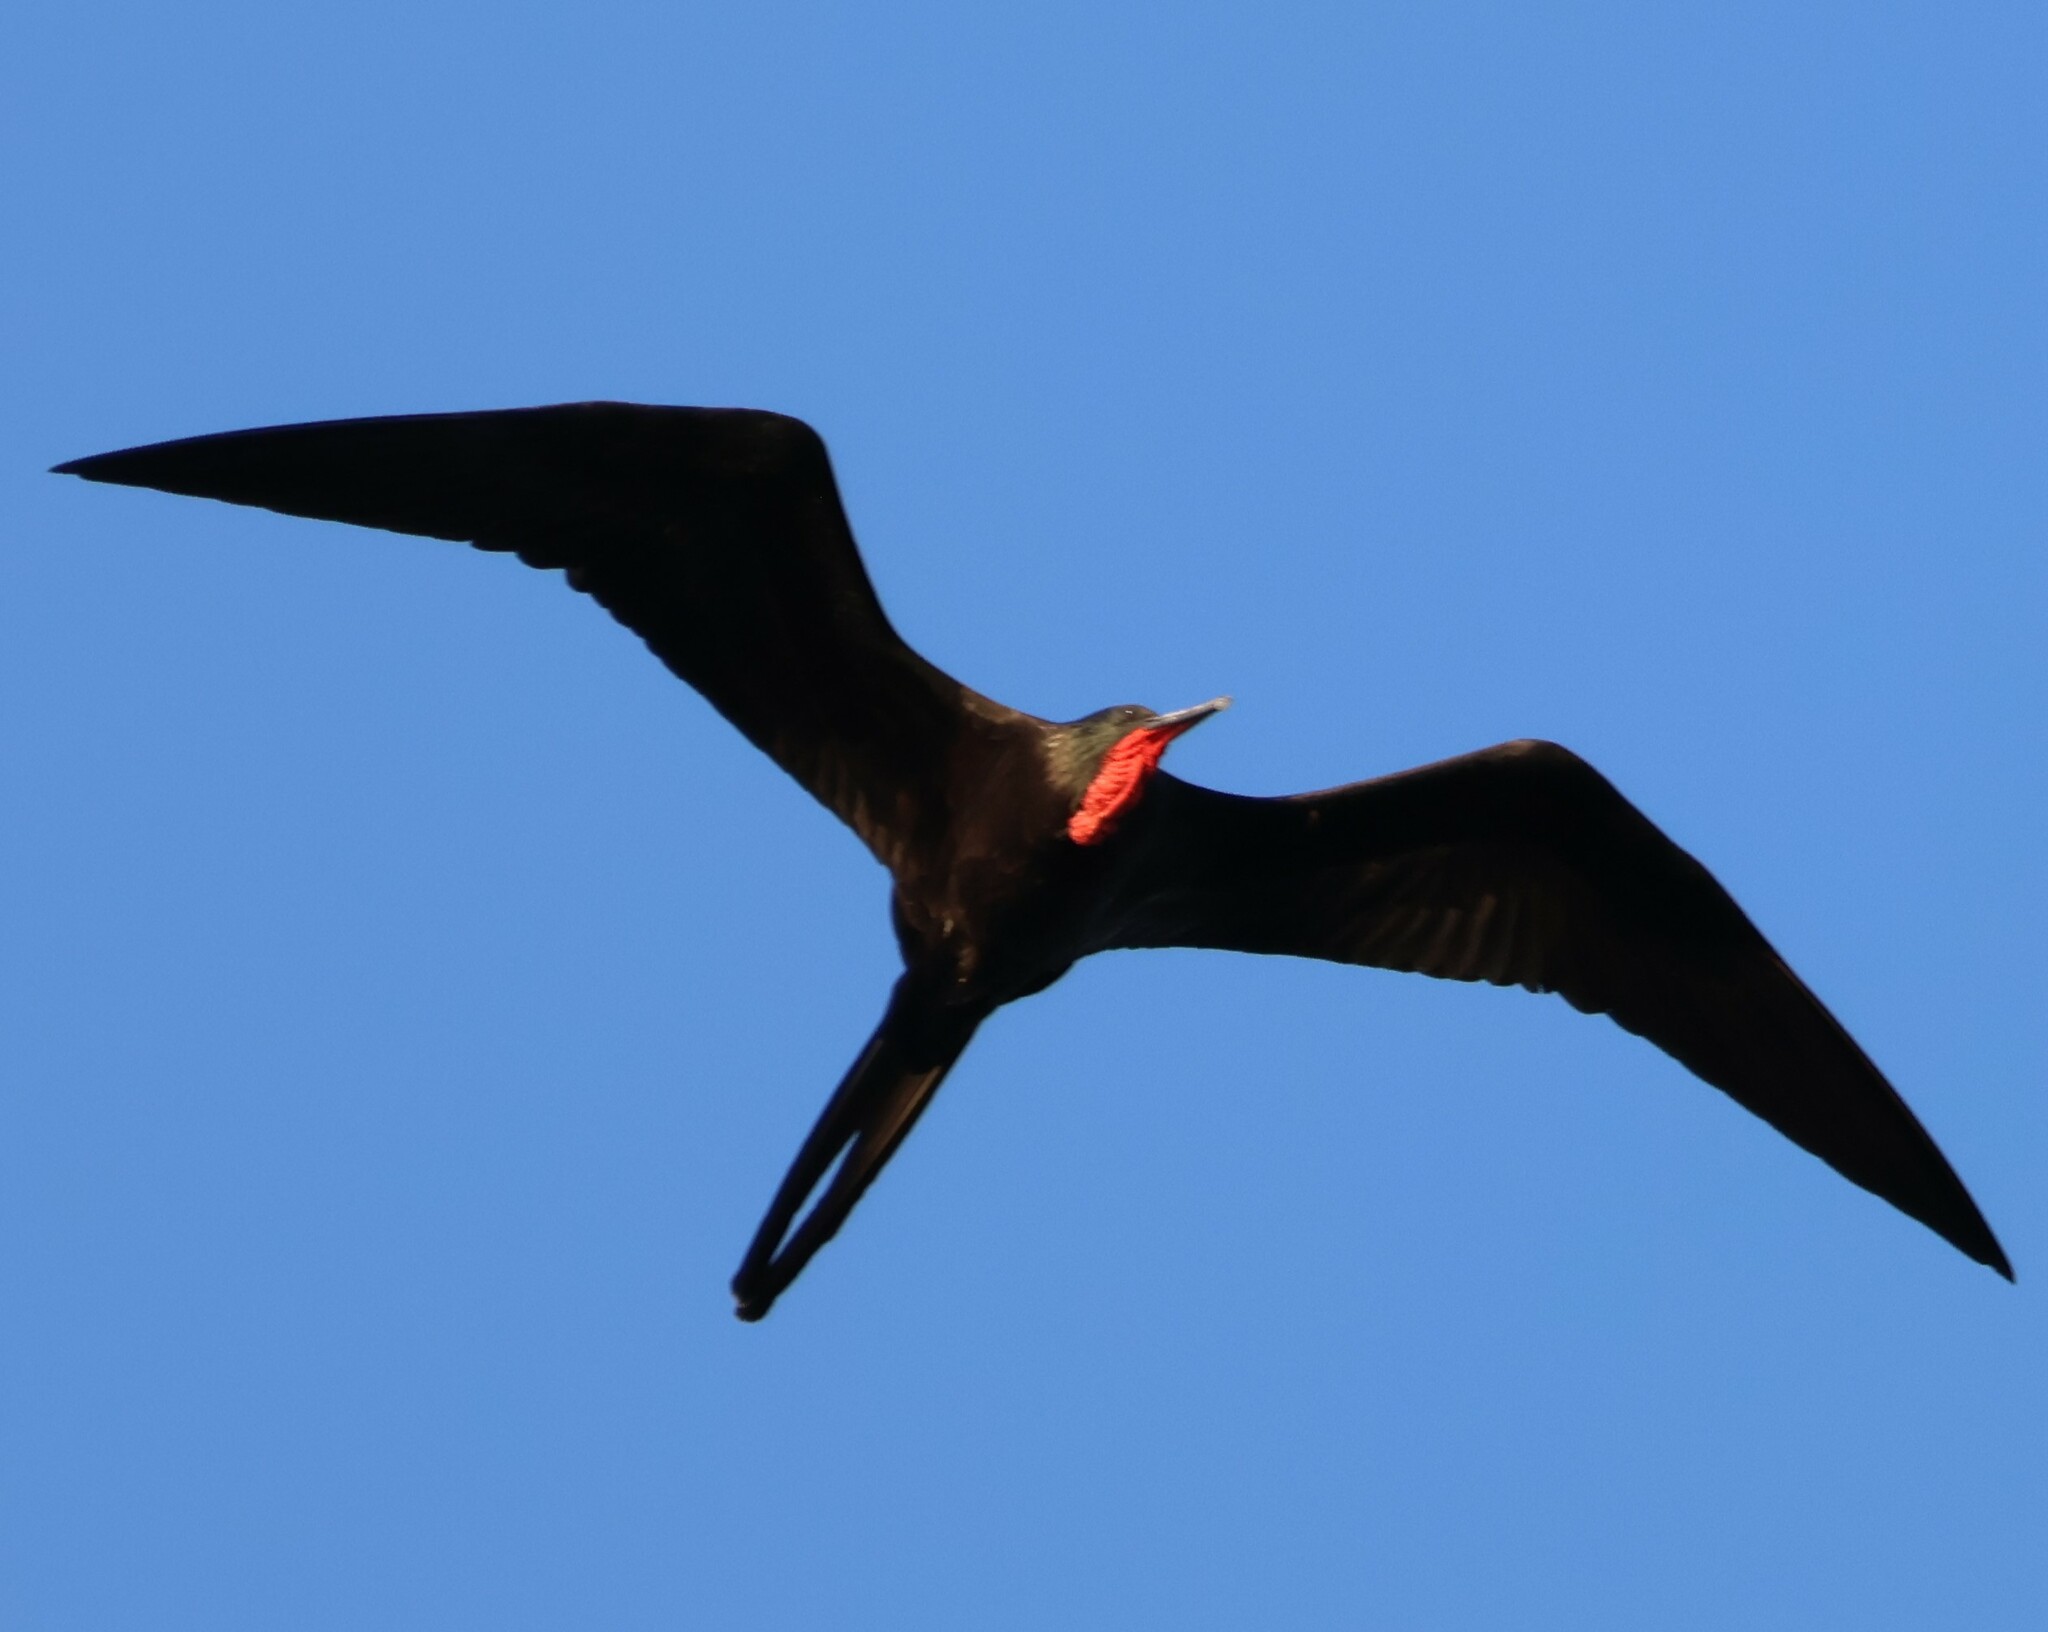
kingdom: Animalia
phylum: Chordata
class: Aves
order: Suliformes
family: Fregatidae
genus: Fregata
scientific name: Fregata magnificens
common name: Magnificent frigatebird
